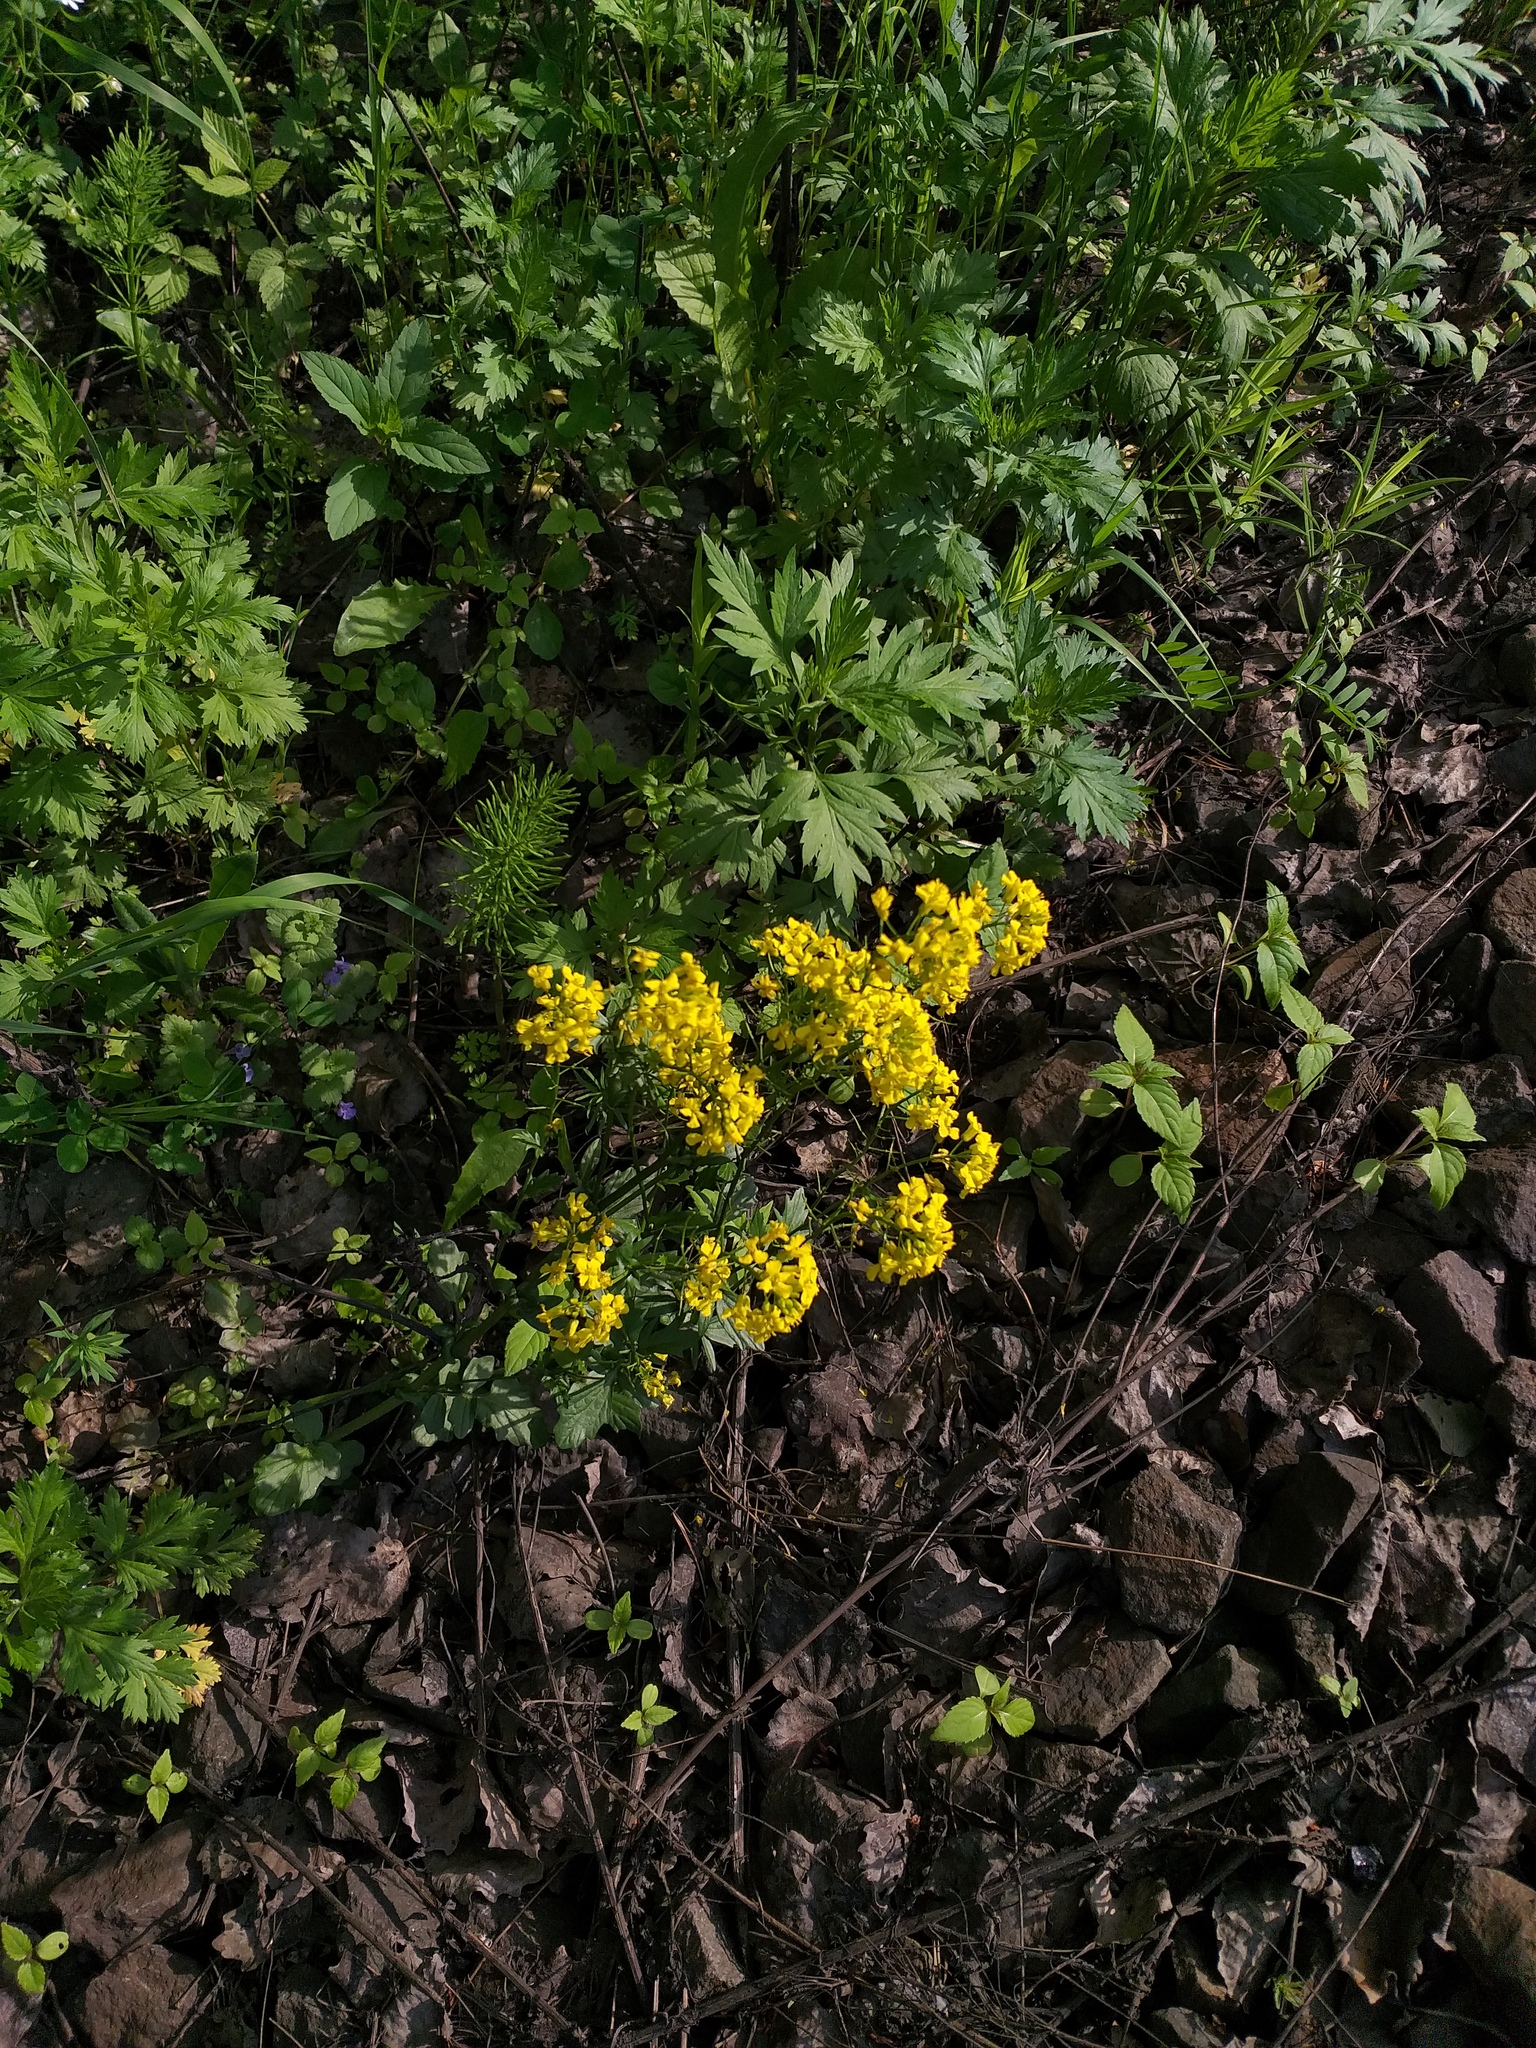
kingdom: Plantae
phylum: Tracheophyta
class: Magnoliopsida
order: Brassicales
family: Brassicaceae
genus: Barbarea
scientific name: Barbarea vulgaris
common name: Cressy-greens
